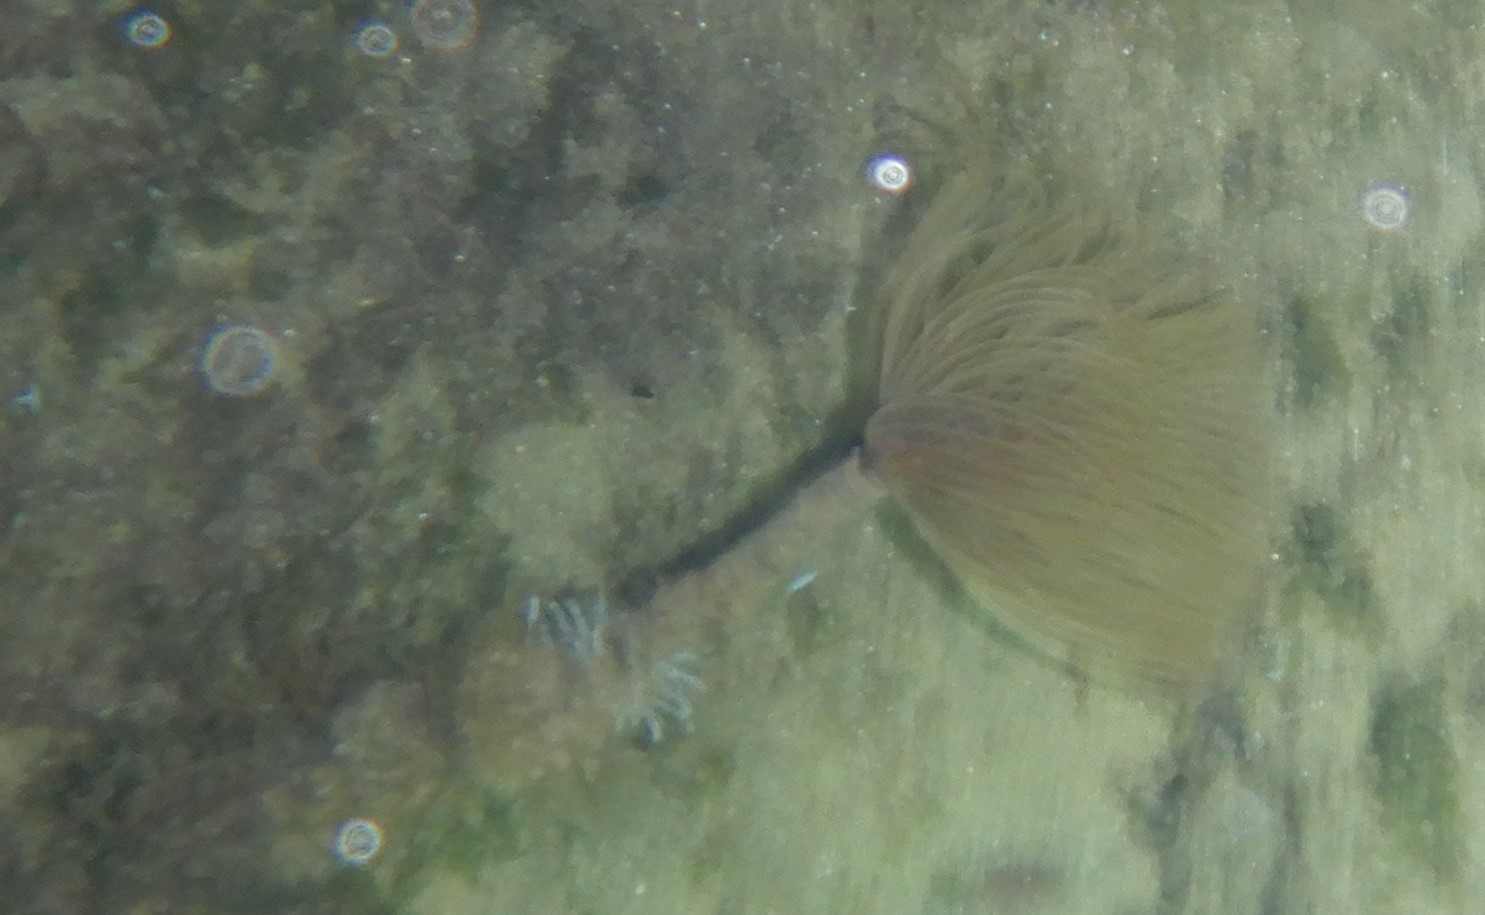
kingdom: Animalia
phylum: Annelida
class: Polychaeta
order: Sabellida
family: Sabellidae
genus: Sabella
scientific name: Sabella spallanzanii
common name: Feather duster worm
